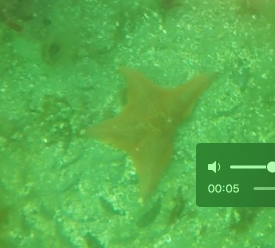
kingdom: Animalia
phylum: Echinodermata
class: Asteroidea
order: Valvatida
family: Asterinidae
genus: Patiria
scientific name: Patiria miniata
